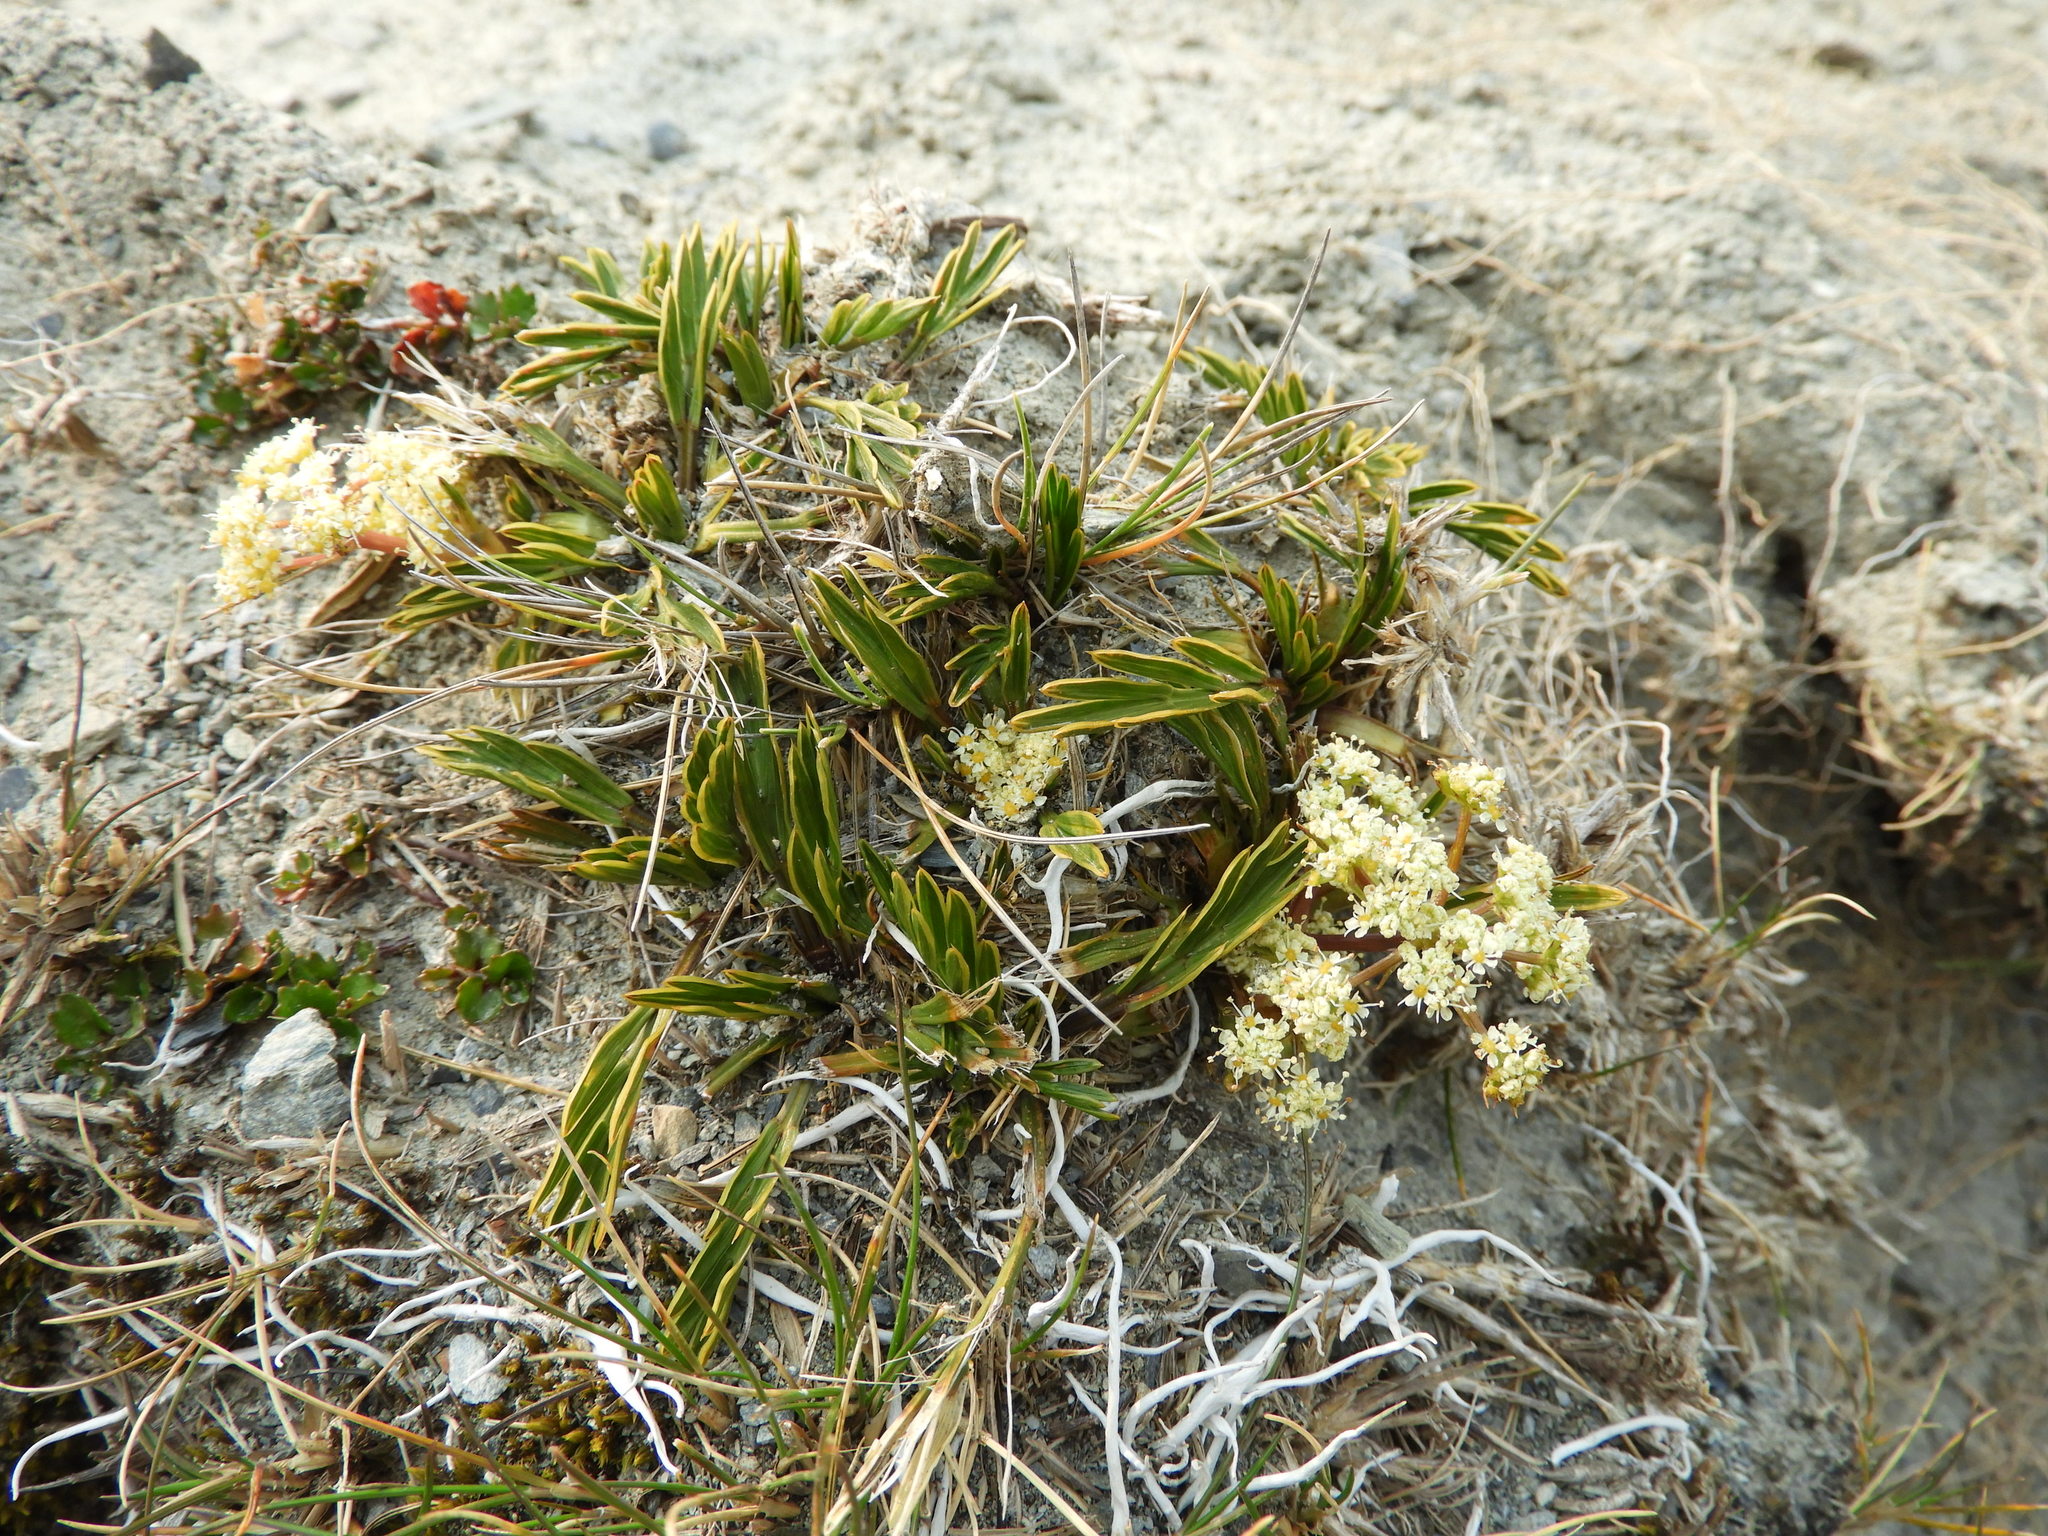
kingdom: Plantae
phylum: Tracheophyta
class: Magnoliopsida
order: Apiales
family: Apiaceae
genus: Aciphylla
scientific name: Aciphylla monroi
